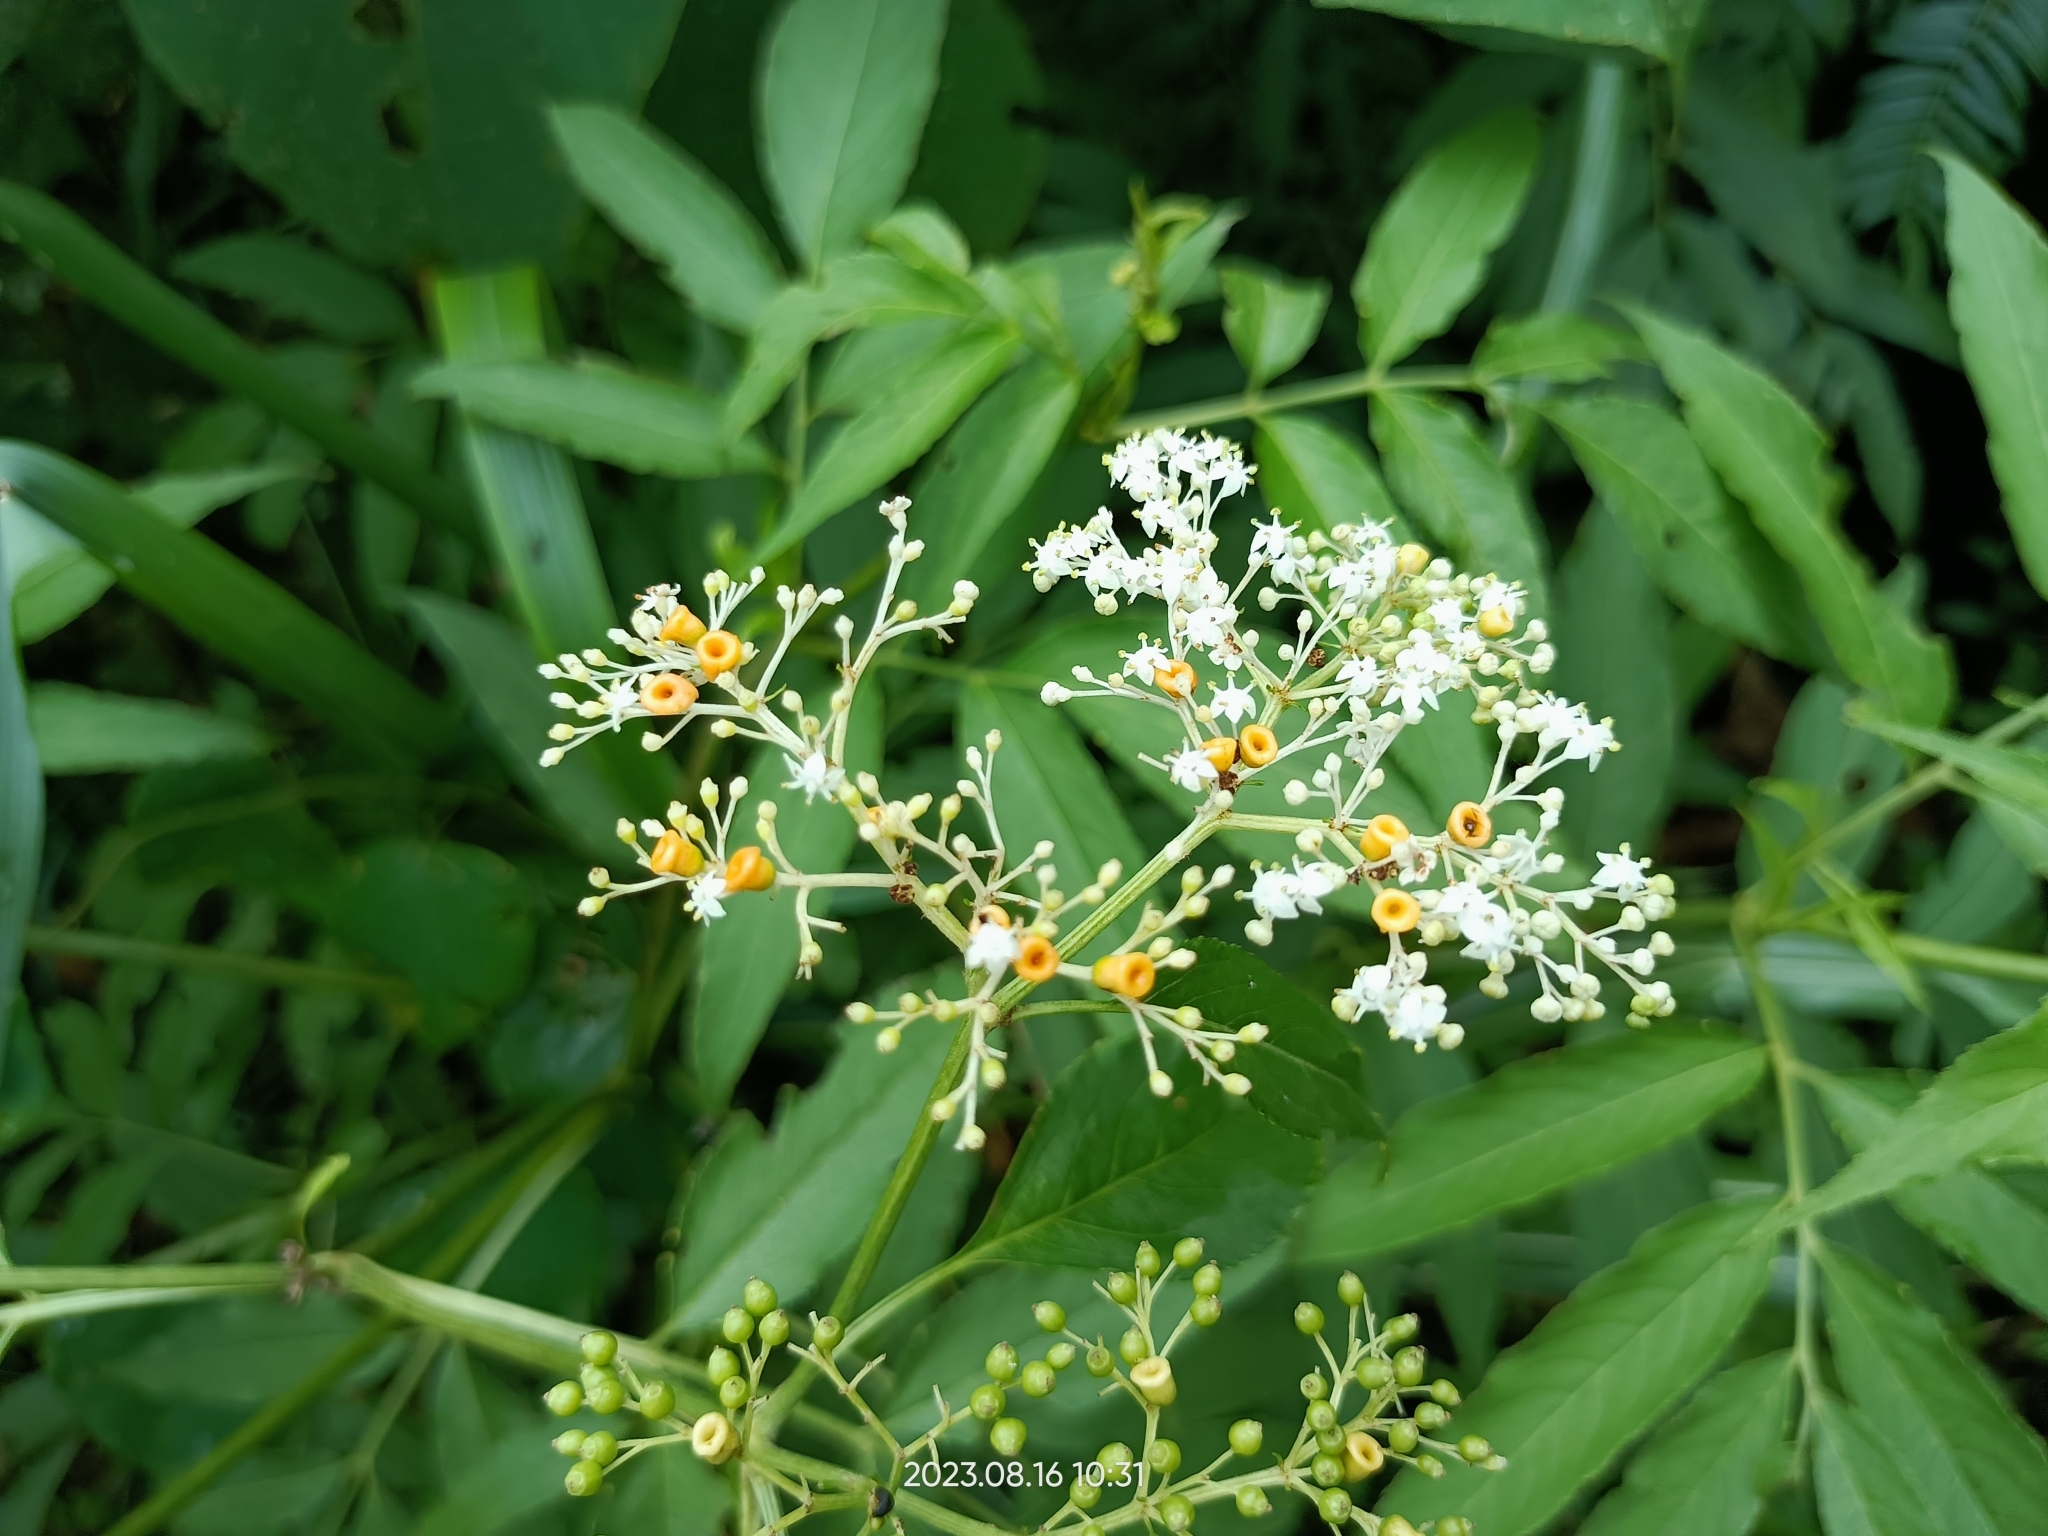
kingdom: Plantae
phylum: Tracheophyta
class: Magnoliopsida
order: Dipsacales
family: Viburnaceae
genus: Sambucus
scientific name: Sambucus javanica
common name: Chinese elder
